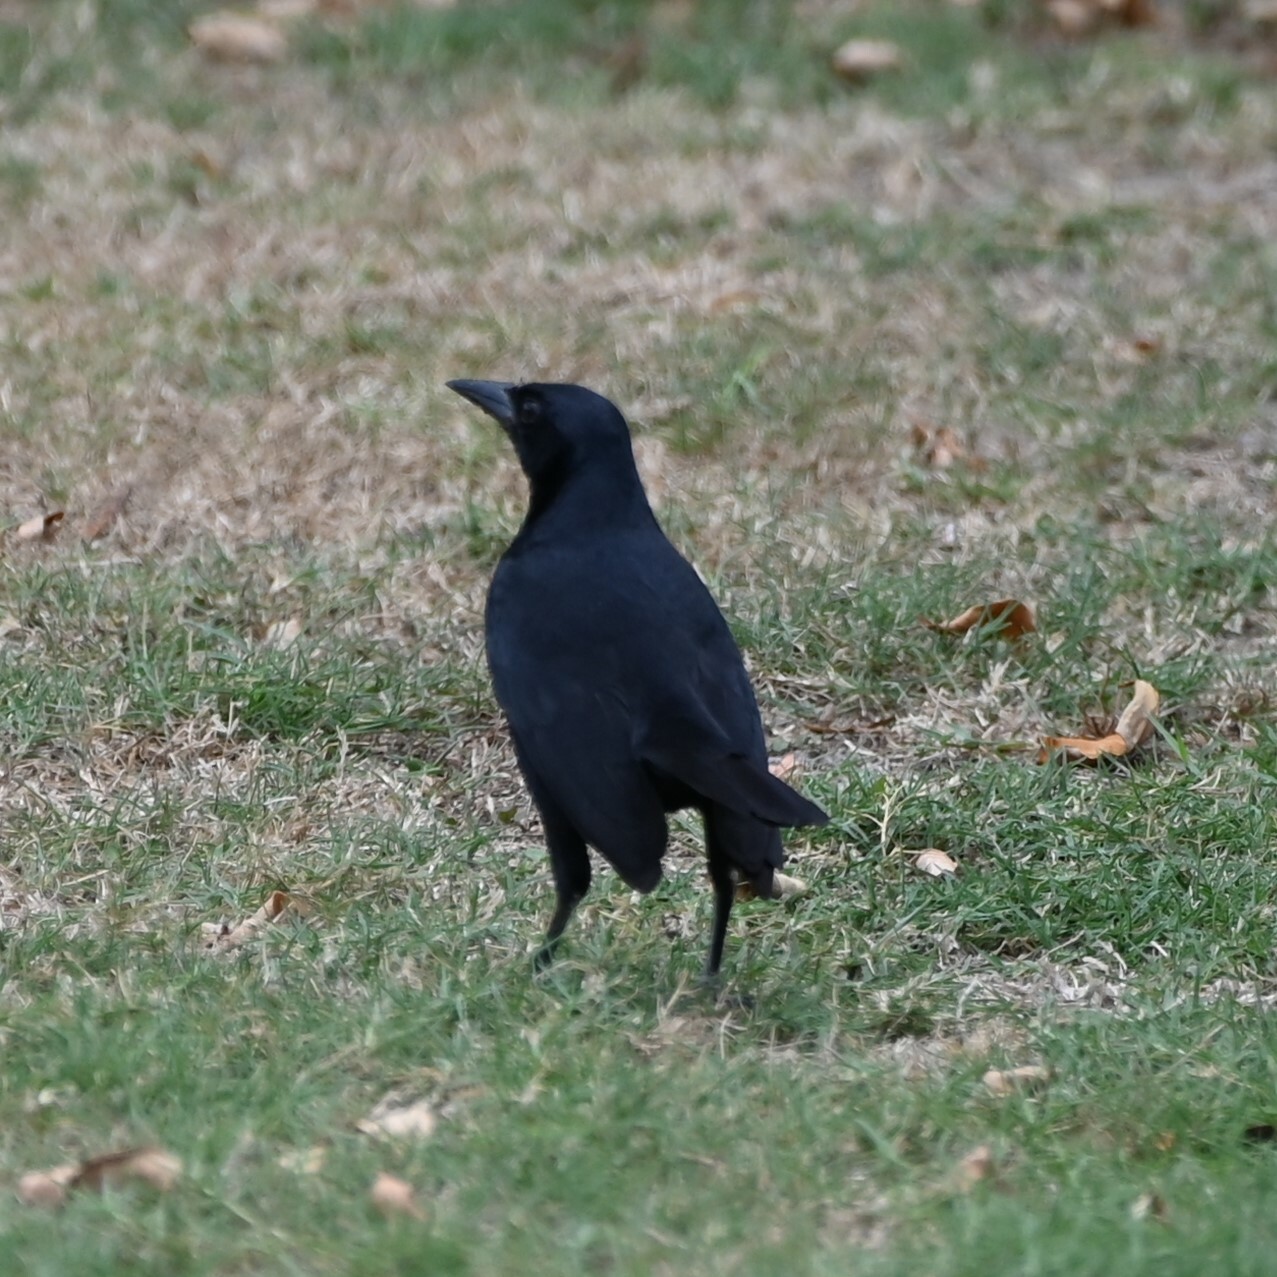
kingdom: Animalia
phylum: Chordata
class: Aves
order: Passeriformes
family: Icteridae
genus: Dives
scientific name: Dives dives
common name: Melodious blackbird
